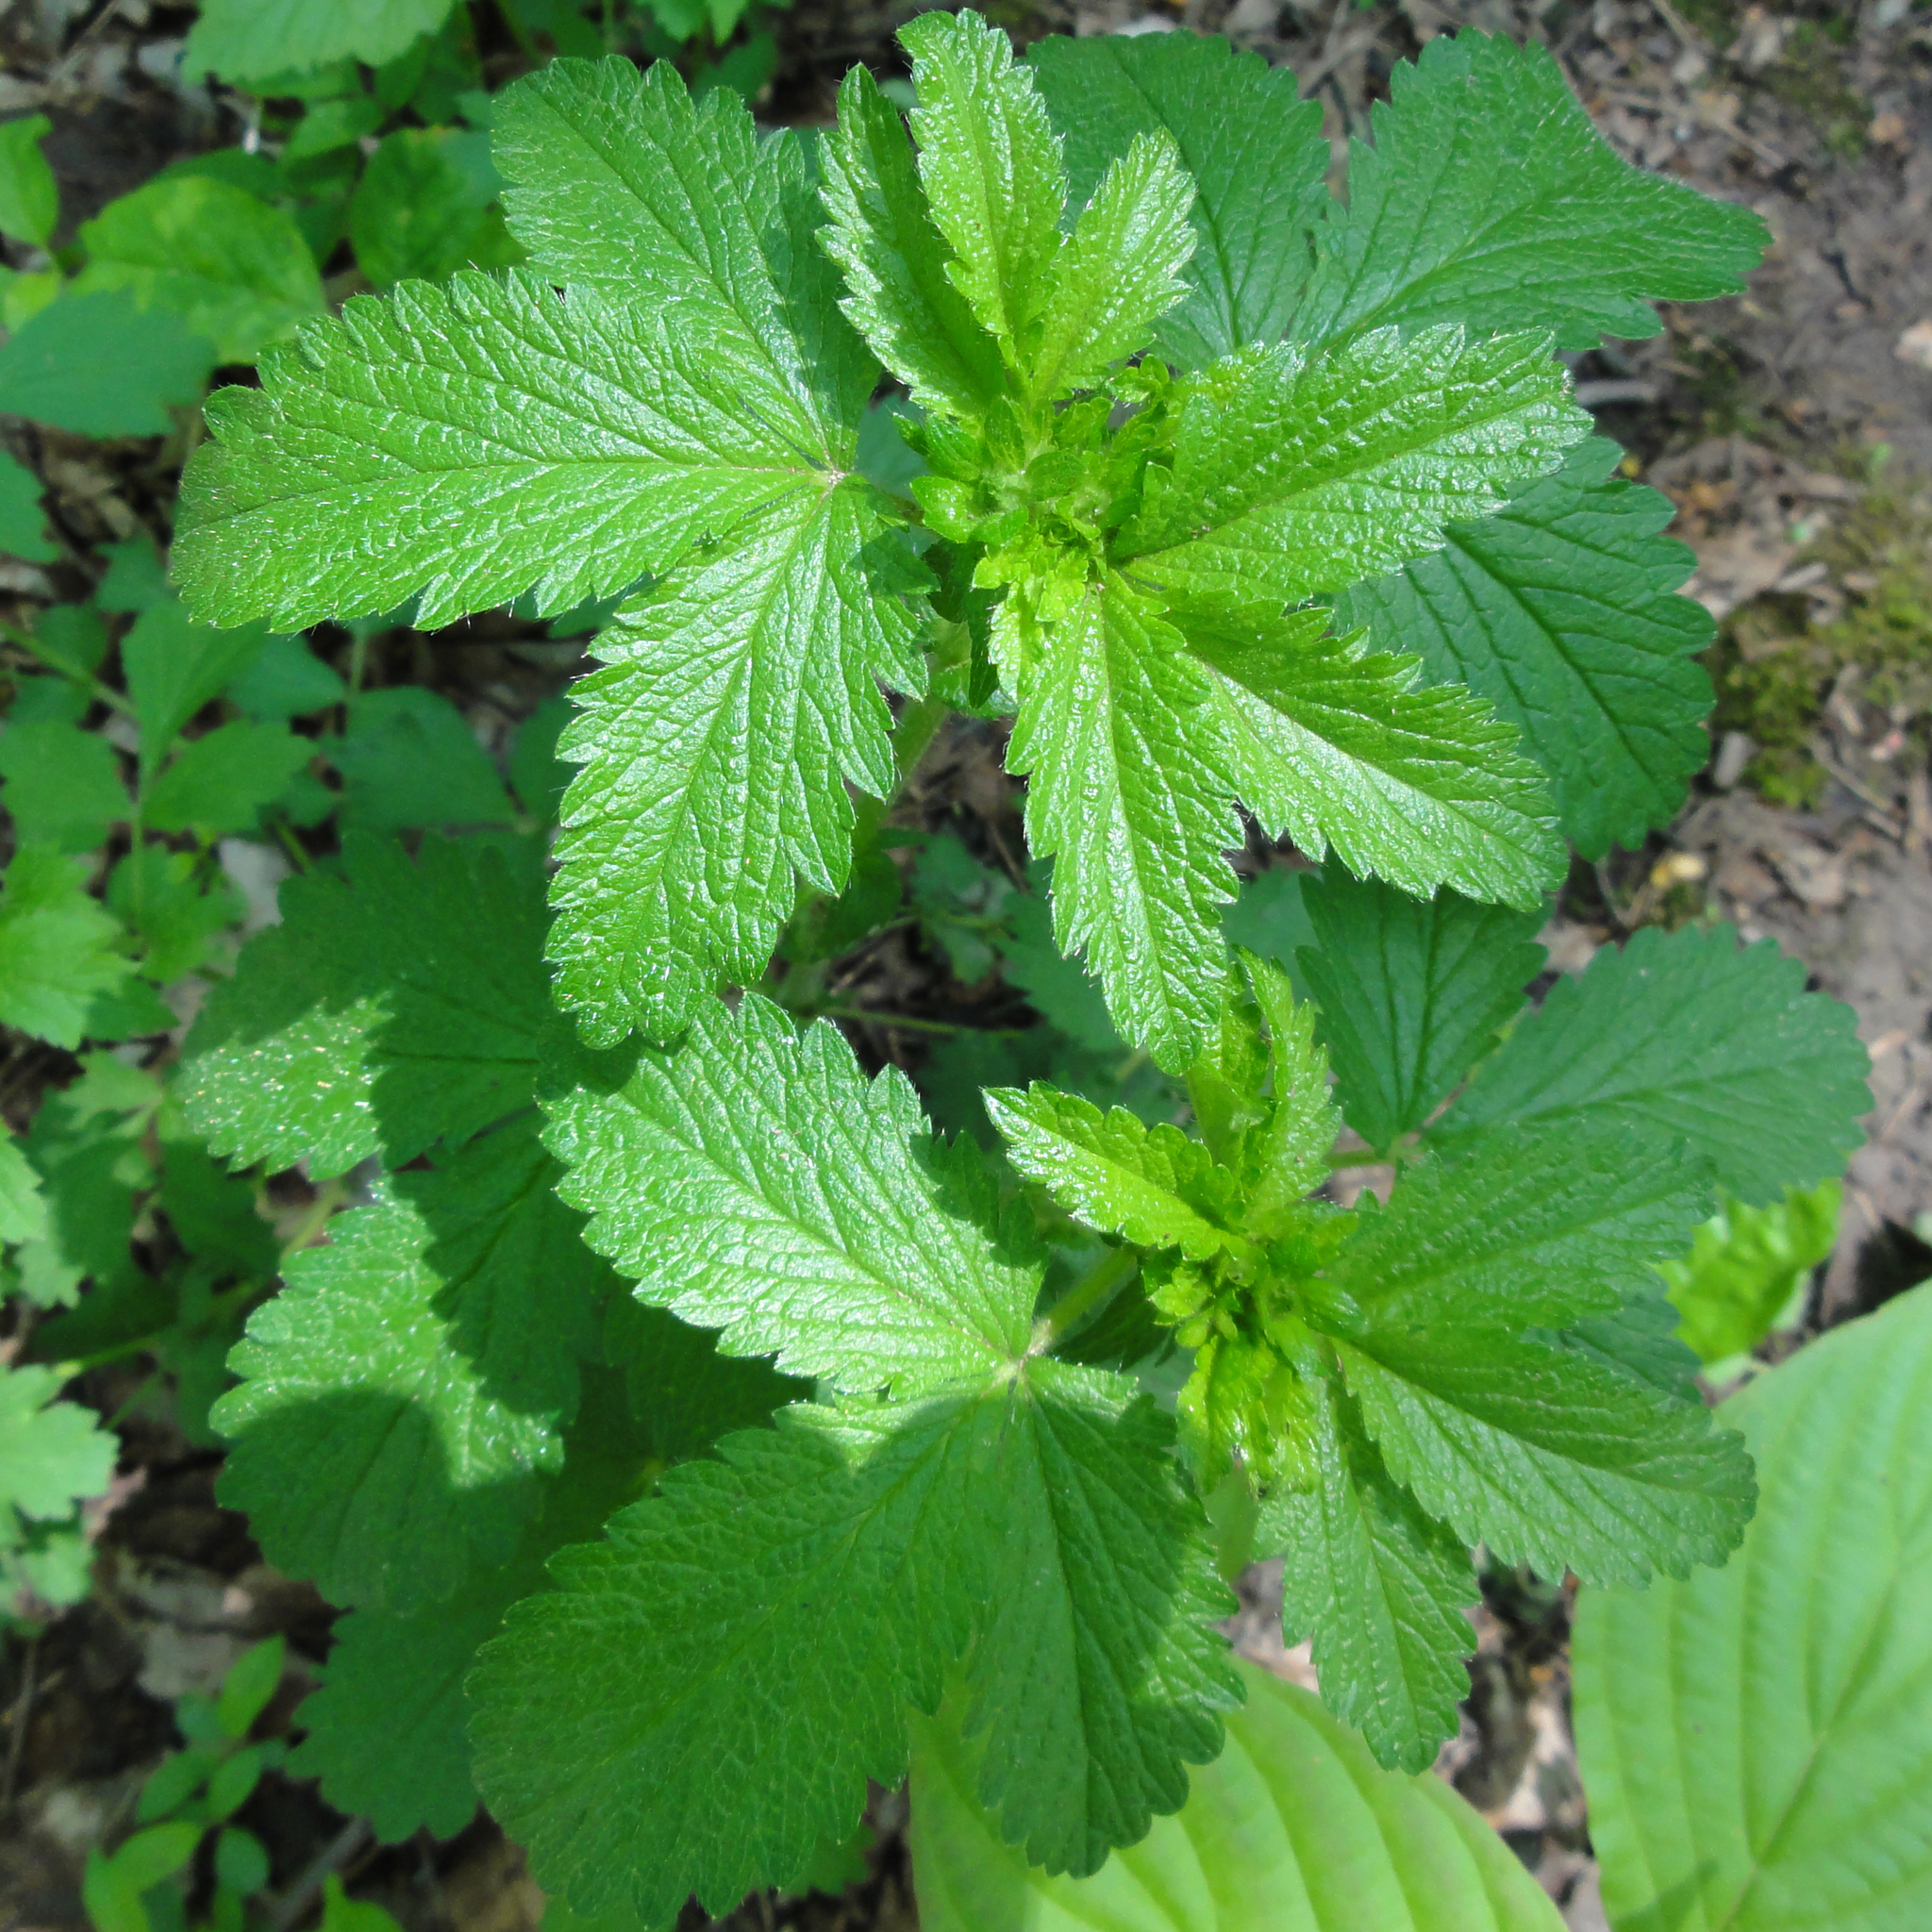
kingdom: Plantae
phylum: Tracheophyta
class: Magnoliopsida
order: Rosales
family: Rosaceae
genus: Potentilla
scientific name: Potentilla norvegica
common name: Ternate-leaved cinquefoil
